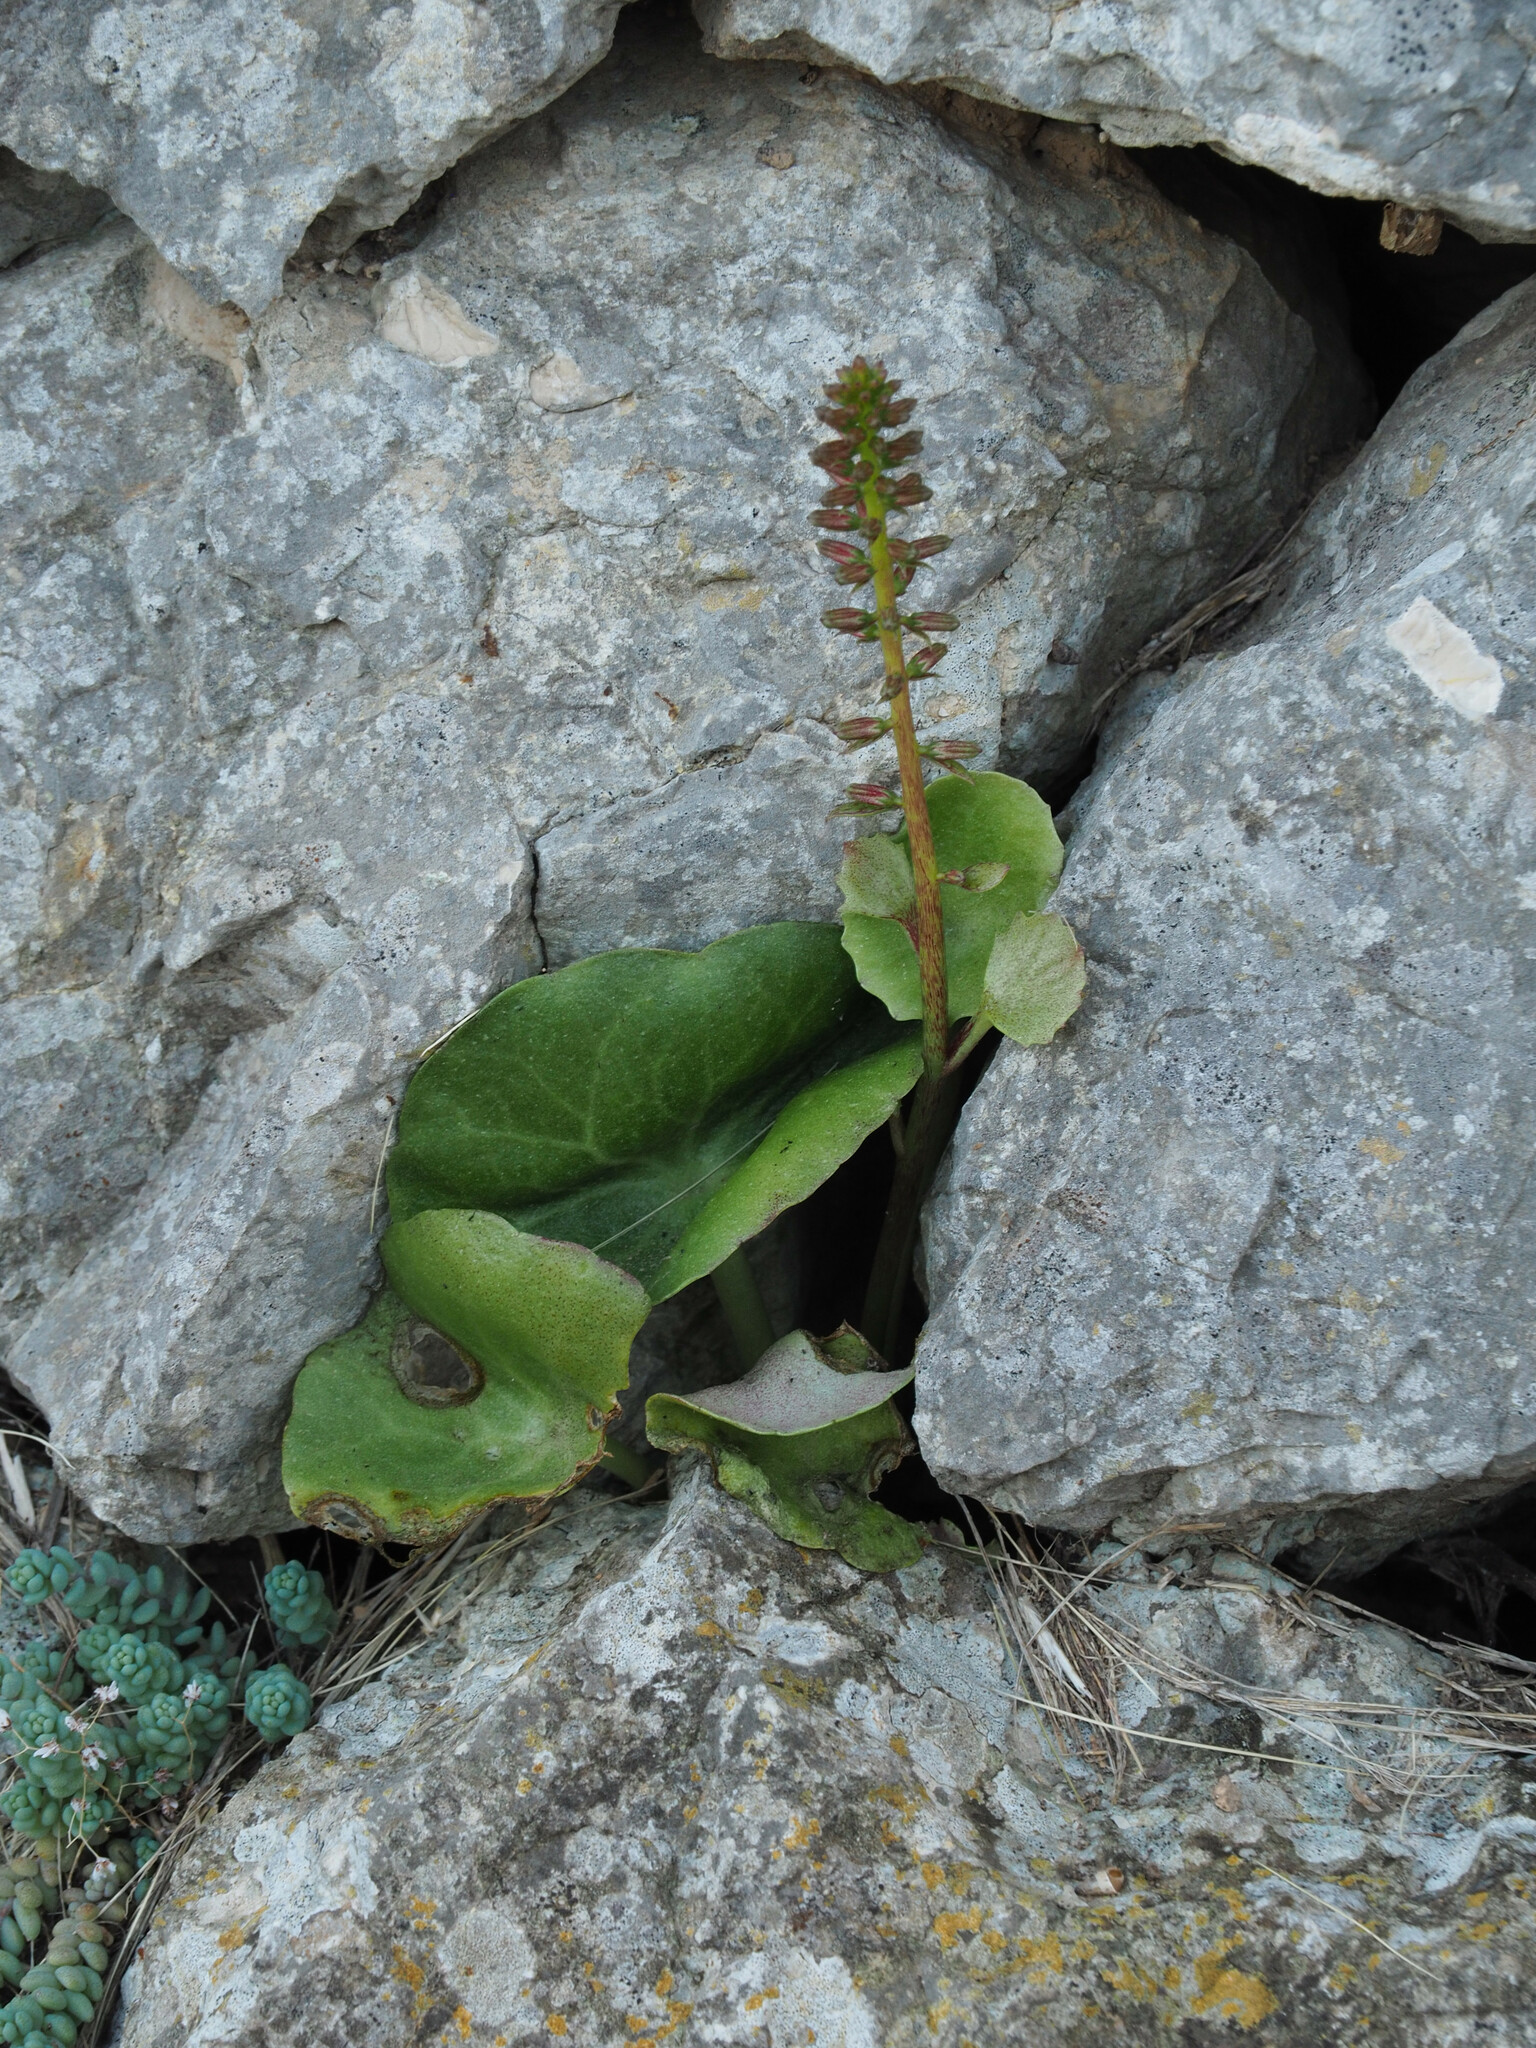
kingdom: Plantae
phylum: Tracheophyta
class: Magnoliopsida
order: Saxifragales
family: Crassulaceae
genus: Umbilicus
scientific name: Umbilicus rupestris
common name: Navelwort
